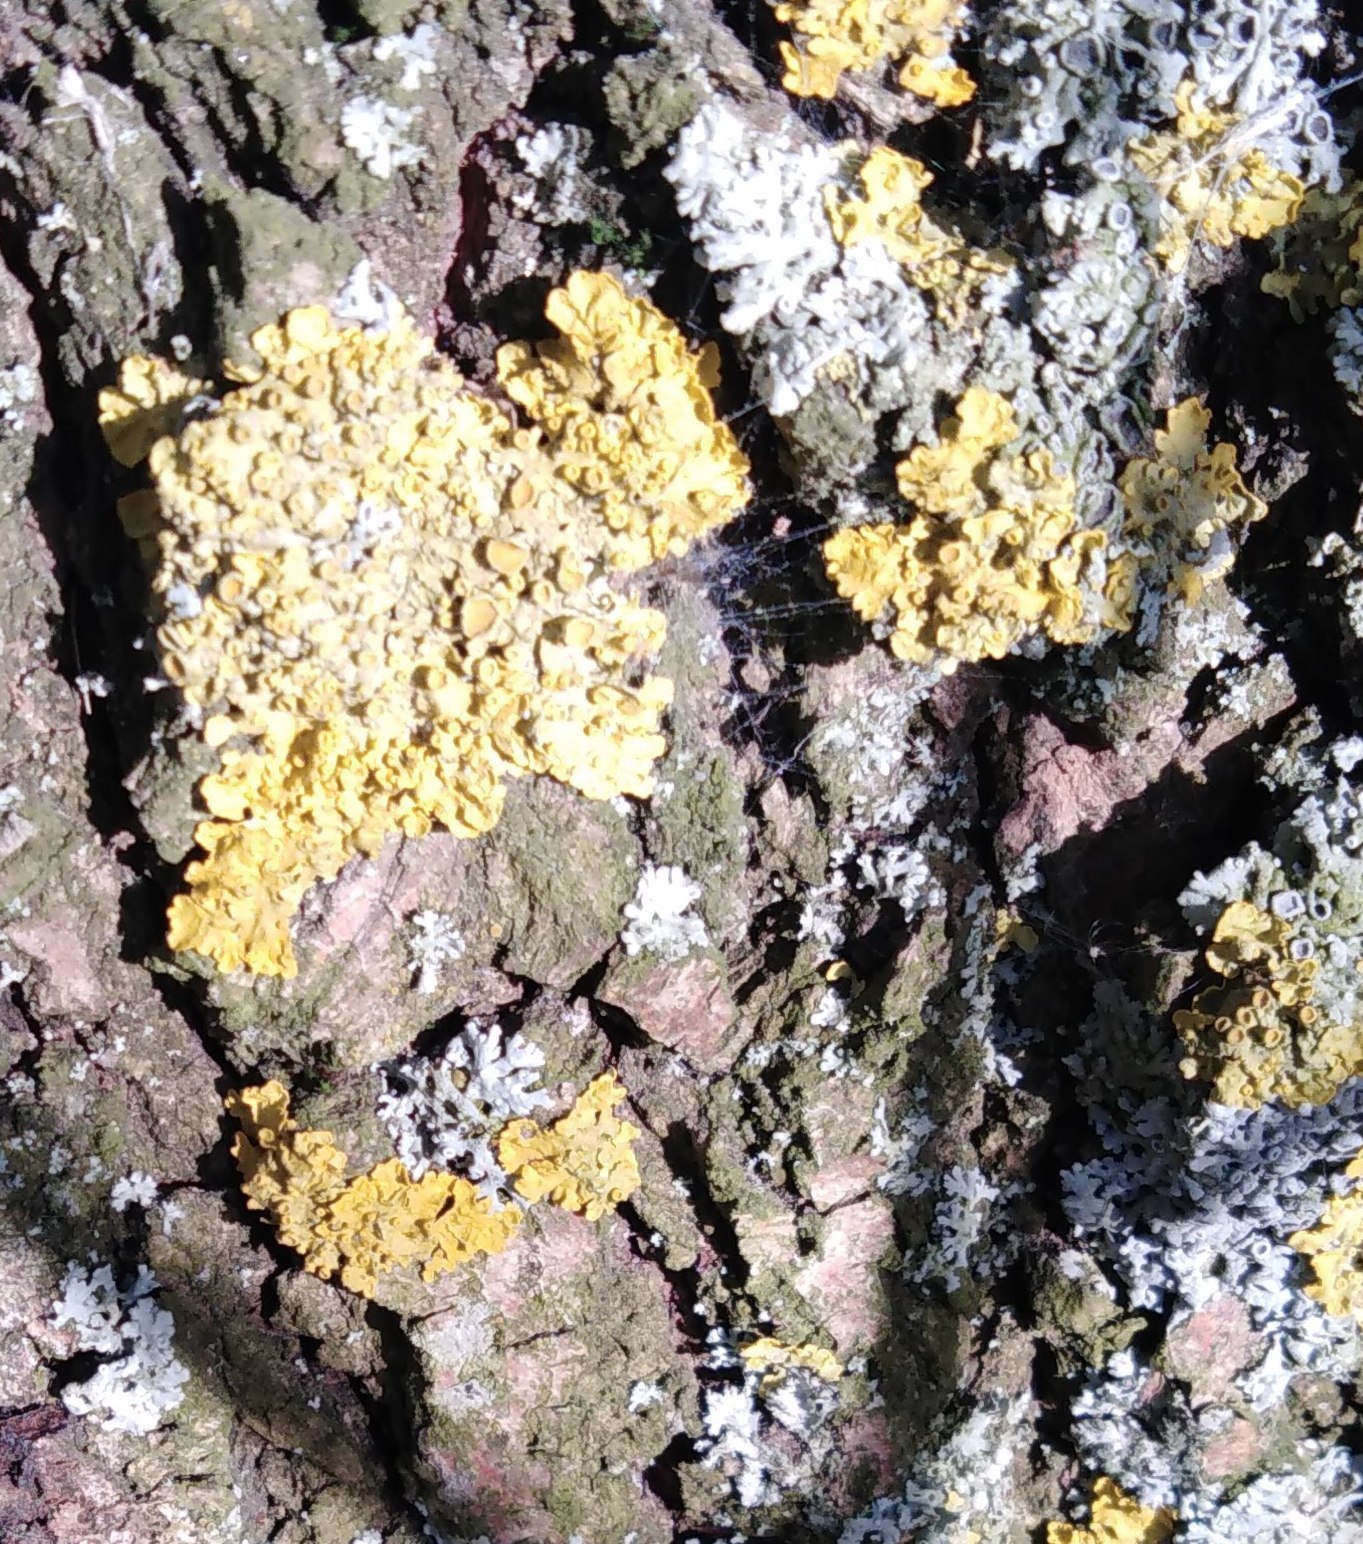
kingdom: Fungi
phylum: Ascomycota
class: Lecanoromycetes
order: Teloschistales
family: Teloschistaceae
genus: Xanthoria
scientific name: Xanthoria parietina
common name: Common orange lichen
